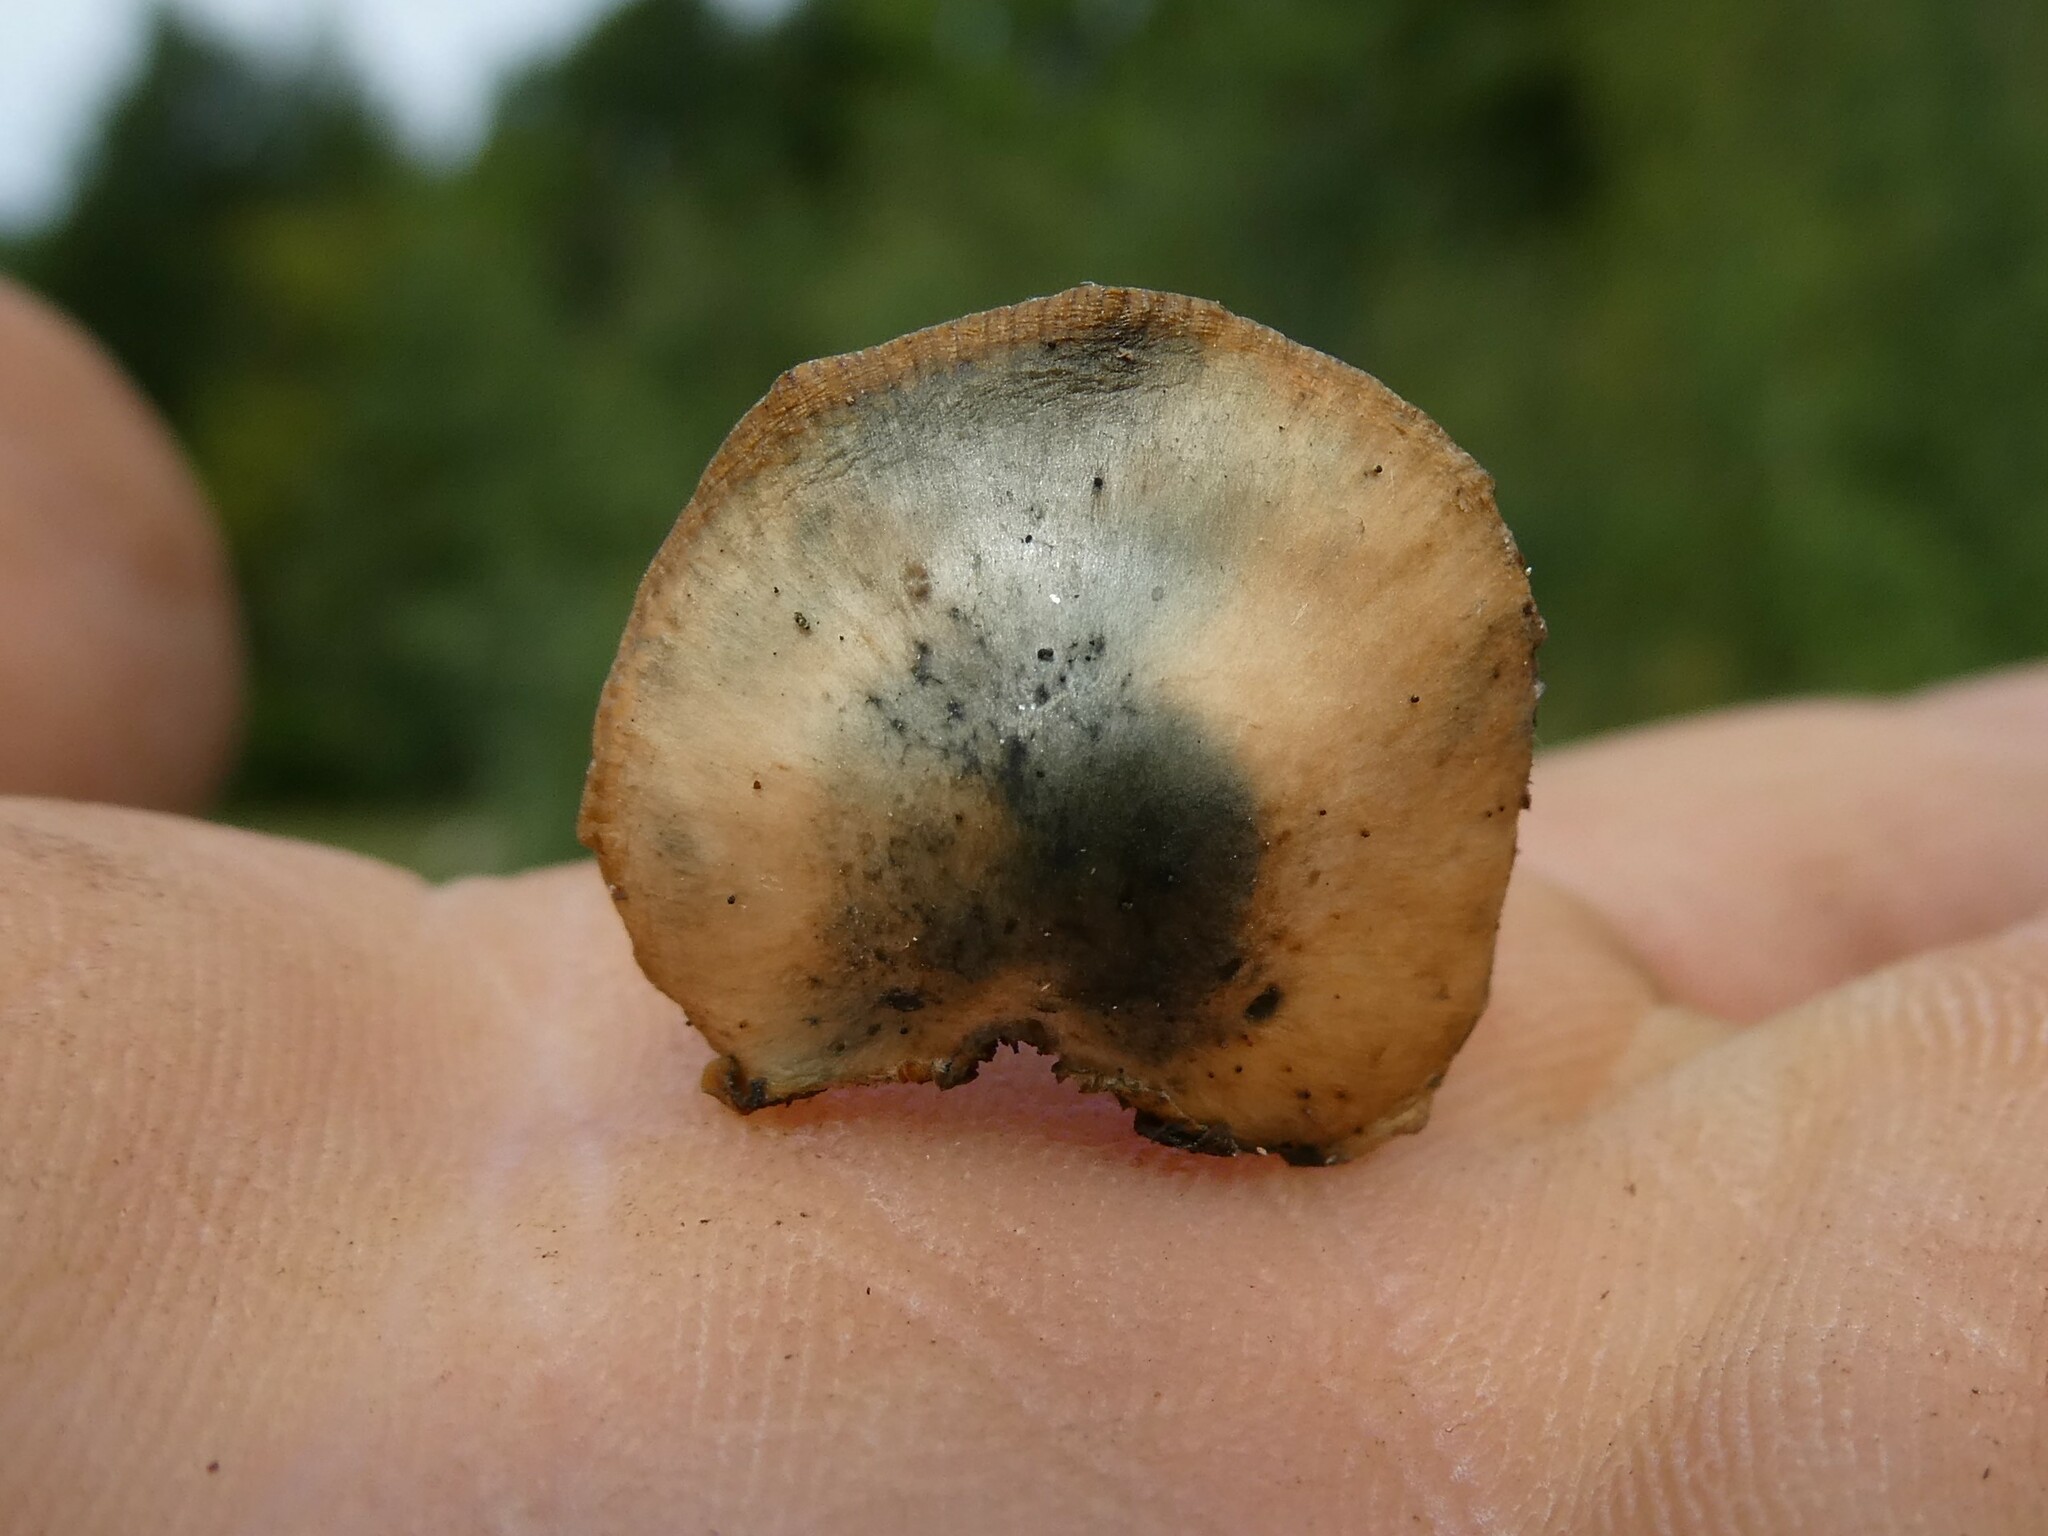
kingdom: Fungi
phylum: Basidiomycota
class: Agaricomycetes
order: Agaricales
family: Hymenogastraceae
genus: Psilocybe
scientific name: Psilocybe caerulipes
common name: Blue-foot
